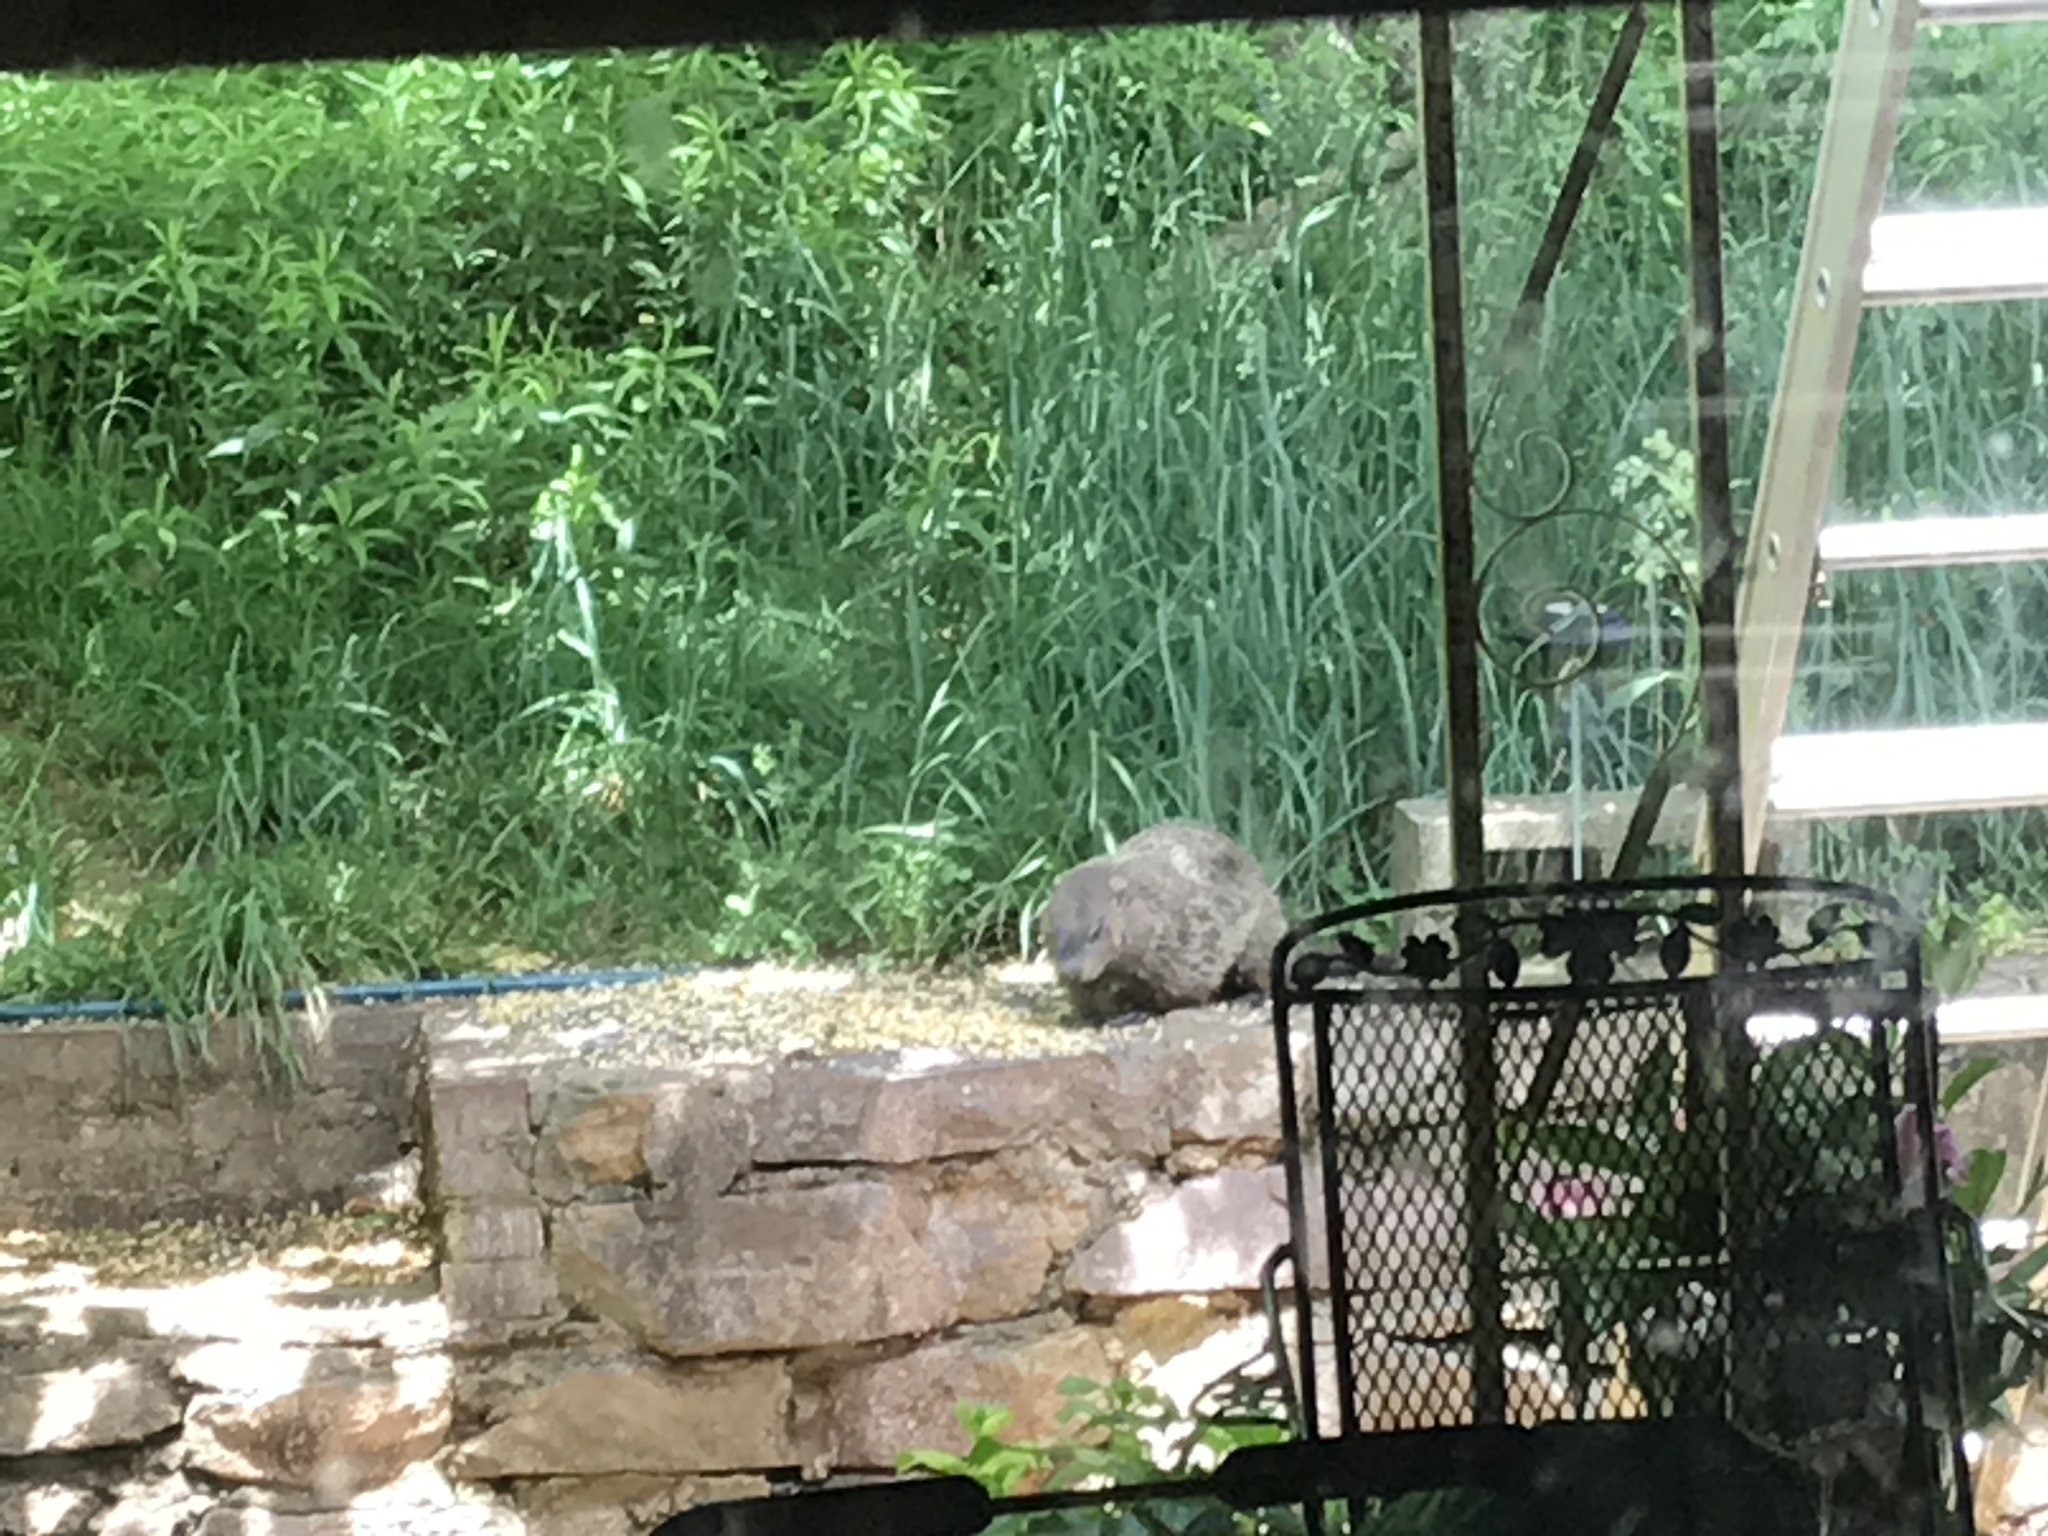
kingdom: Animalia
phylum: Chordata
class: Mammalia
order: Rodentia
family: Sciuridae
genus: Marmota
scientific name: Marmota monax
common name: Groundhog
